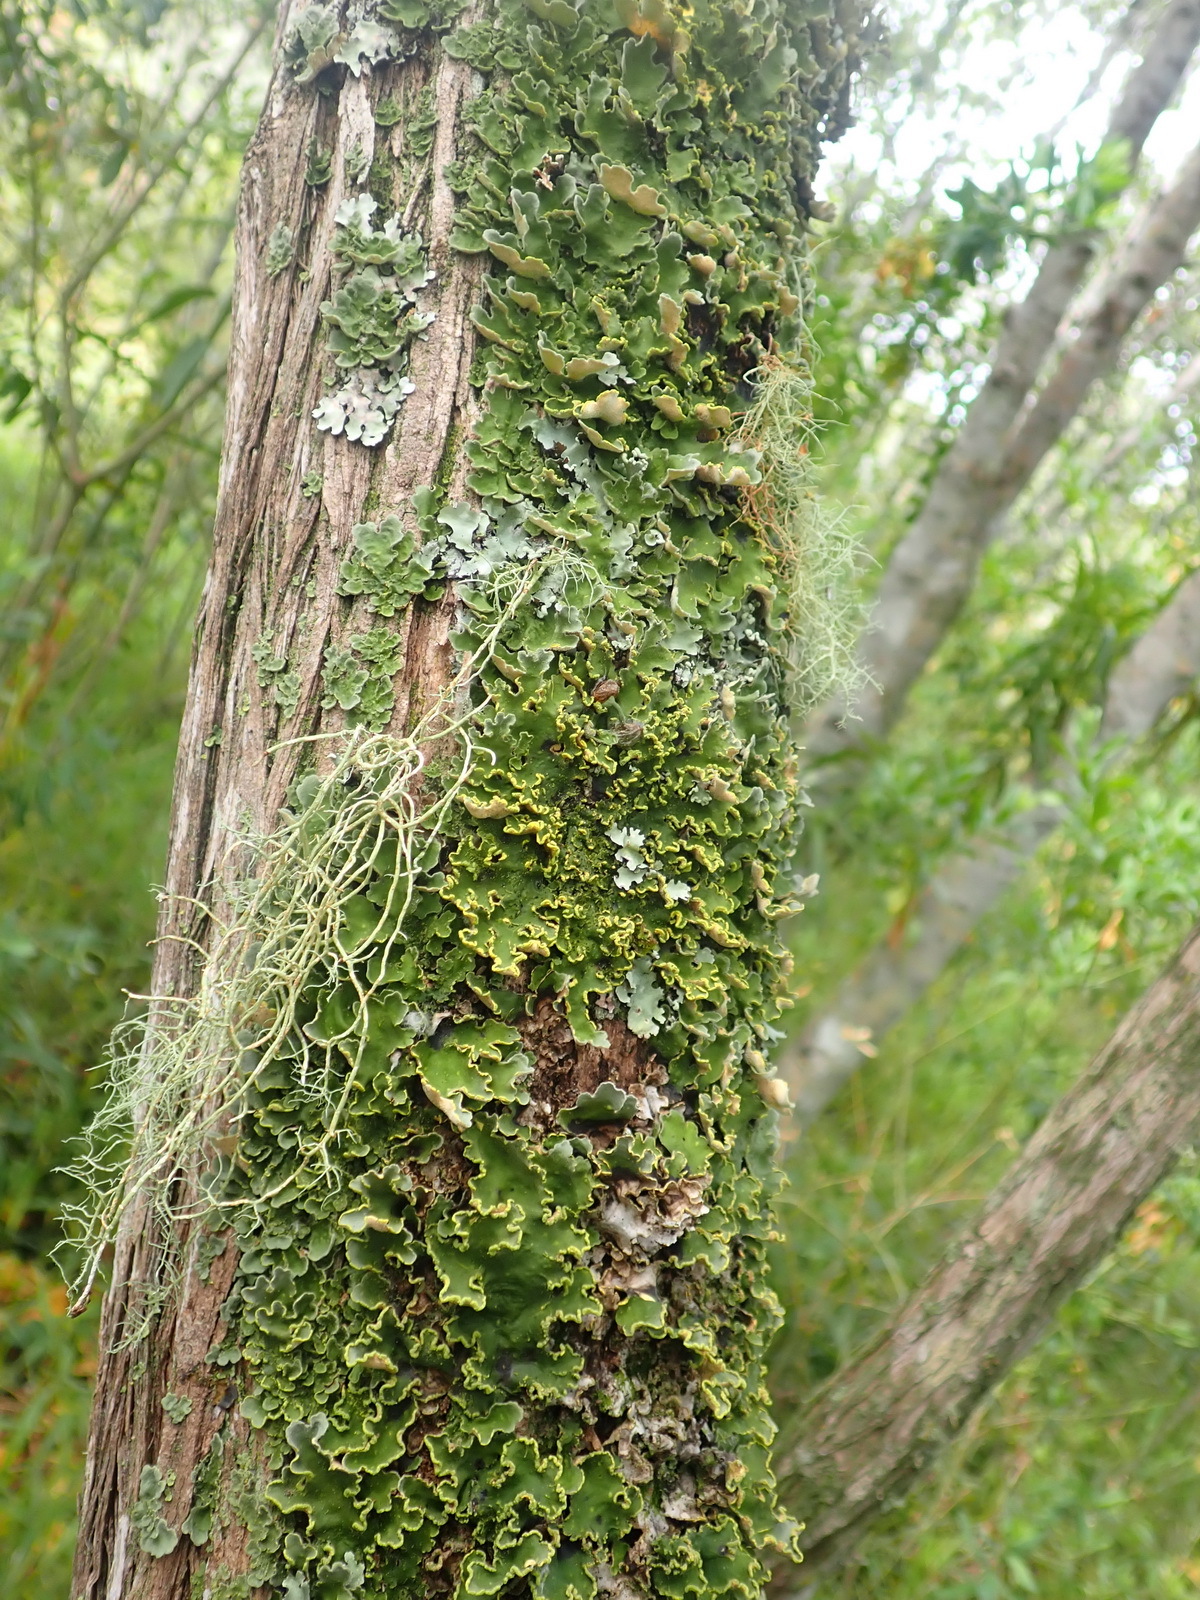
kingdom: Fungi
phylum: Ascomycota
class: Lecanoromycetes
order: Peltigerales
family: Lobariaceae
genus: Pseudocyphellaria
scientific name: Pseudocyphellaria aurata
